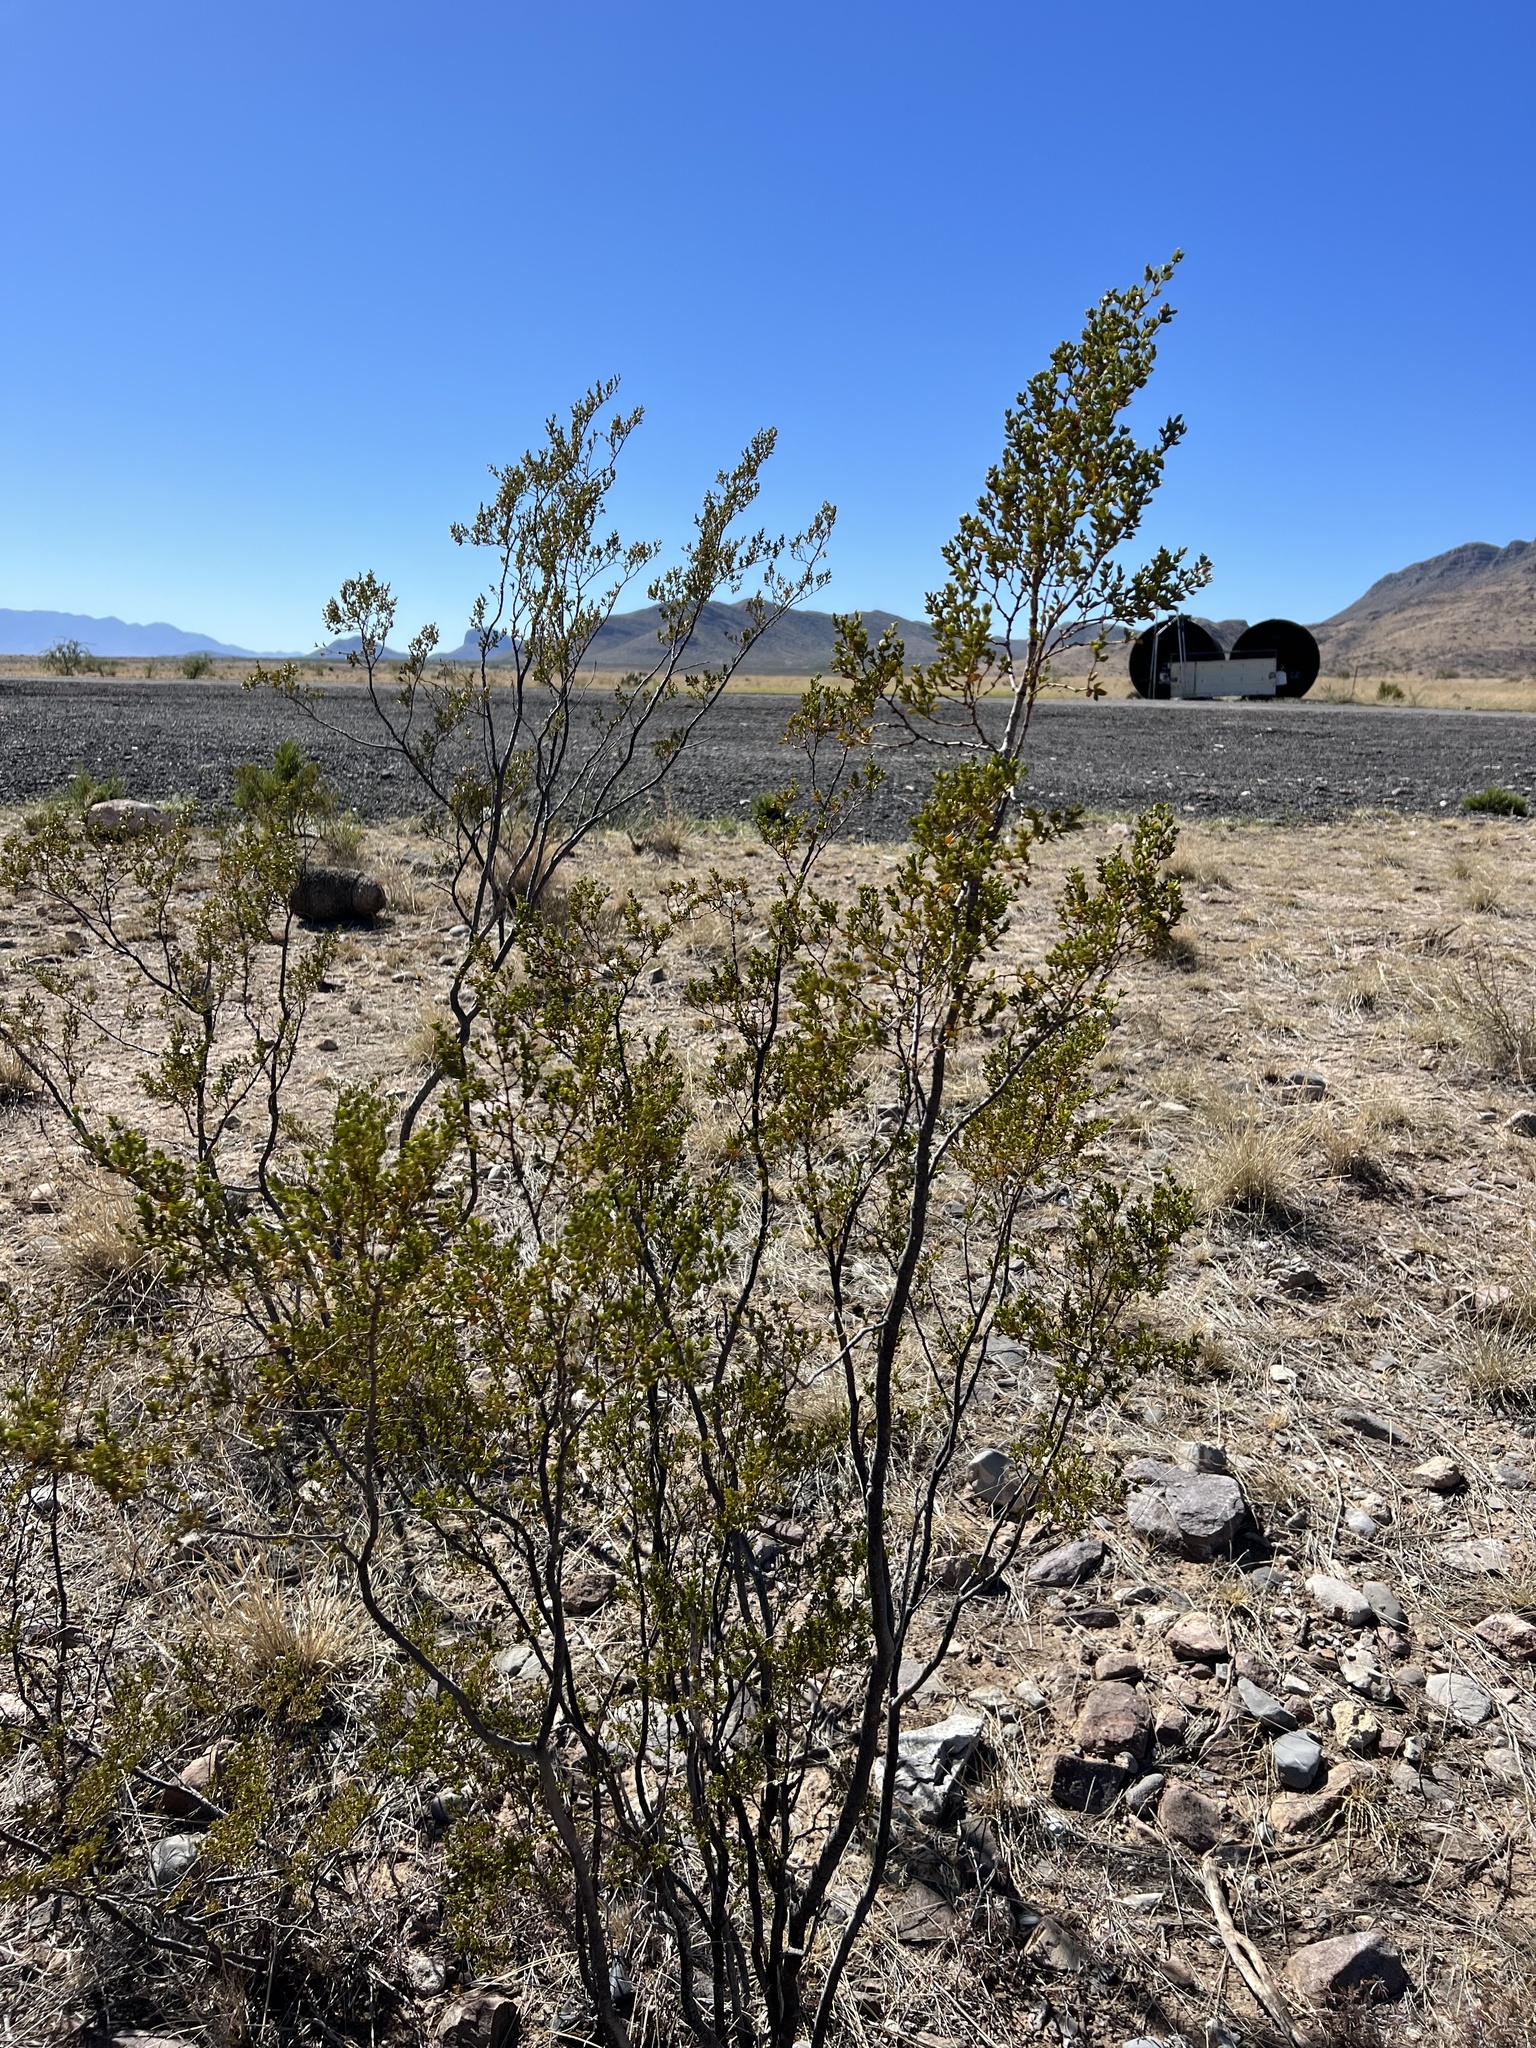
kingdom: Plantae
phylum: Tracheophyta
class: Magnoliopsida
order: Zygophyllales
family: Zygophyllaceae
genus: Larrea
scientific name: Larrea tridentata
